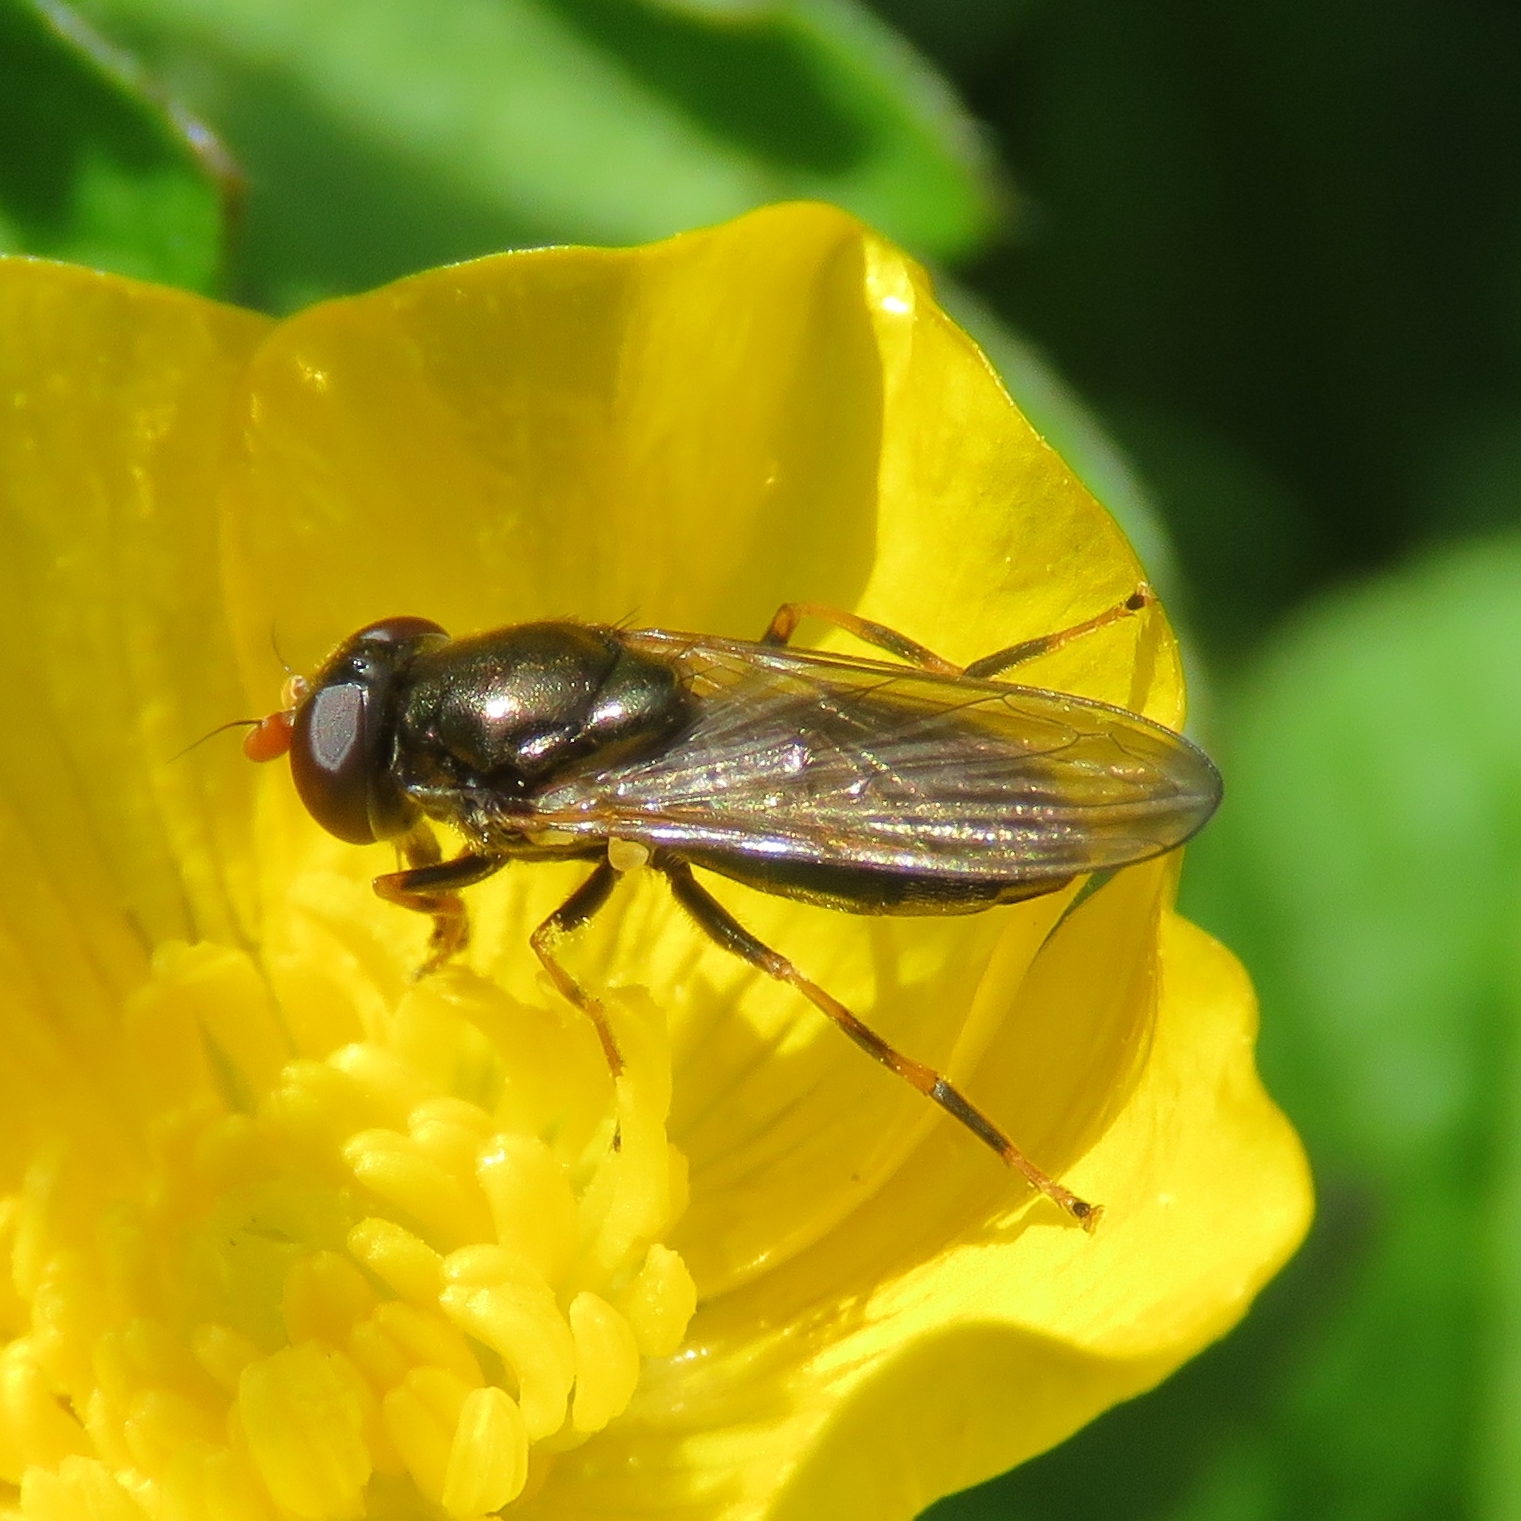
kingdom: Animalia
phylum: Arthropoda
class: Insecta
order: Diptera
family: Syrphidae
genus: Cheilosia
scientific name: Cheilosia pagana
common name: Hover fly
